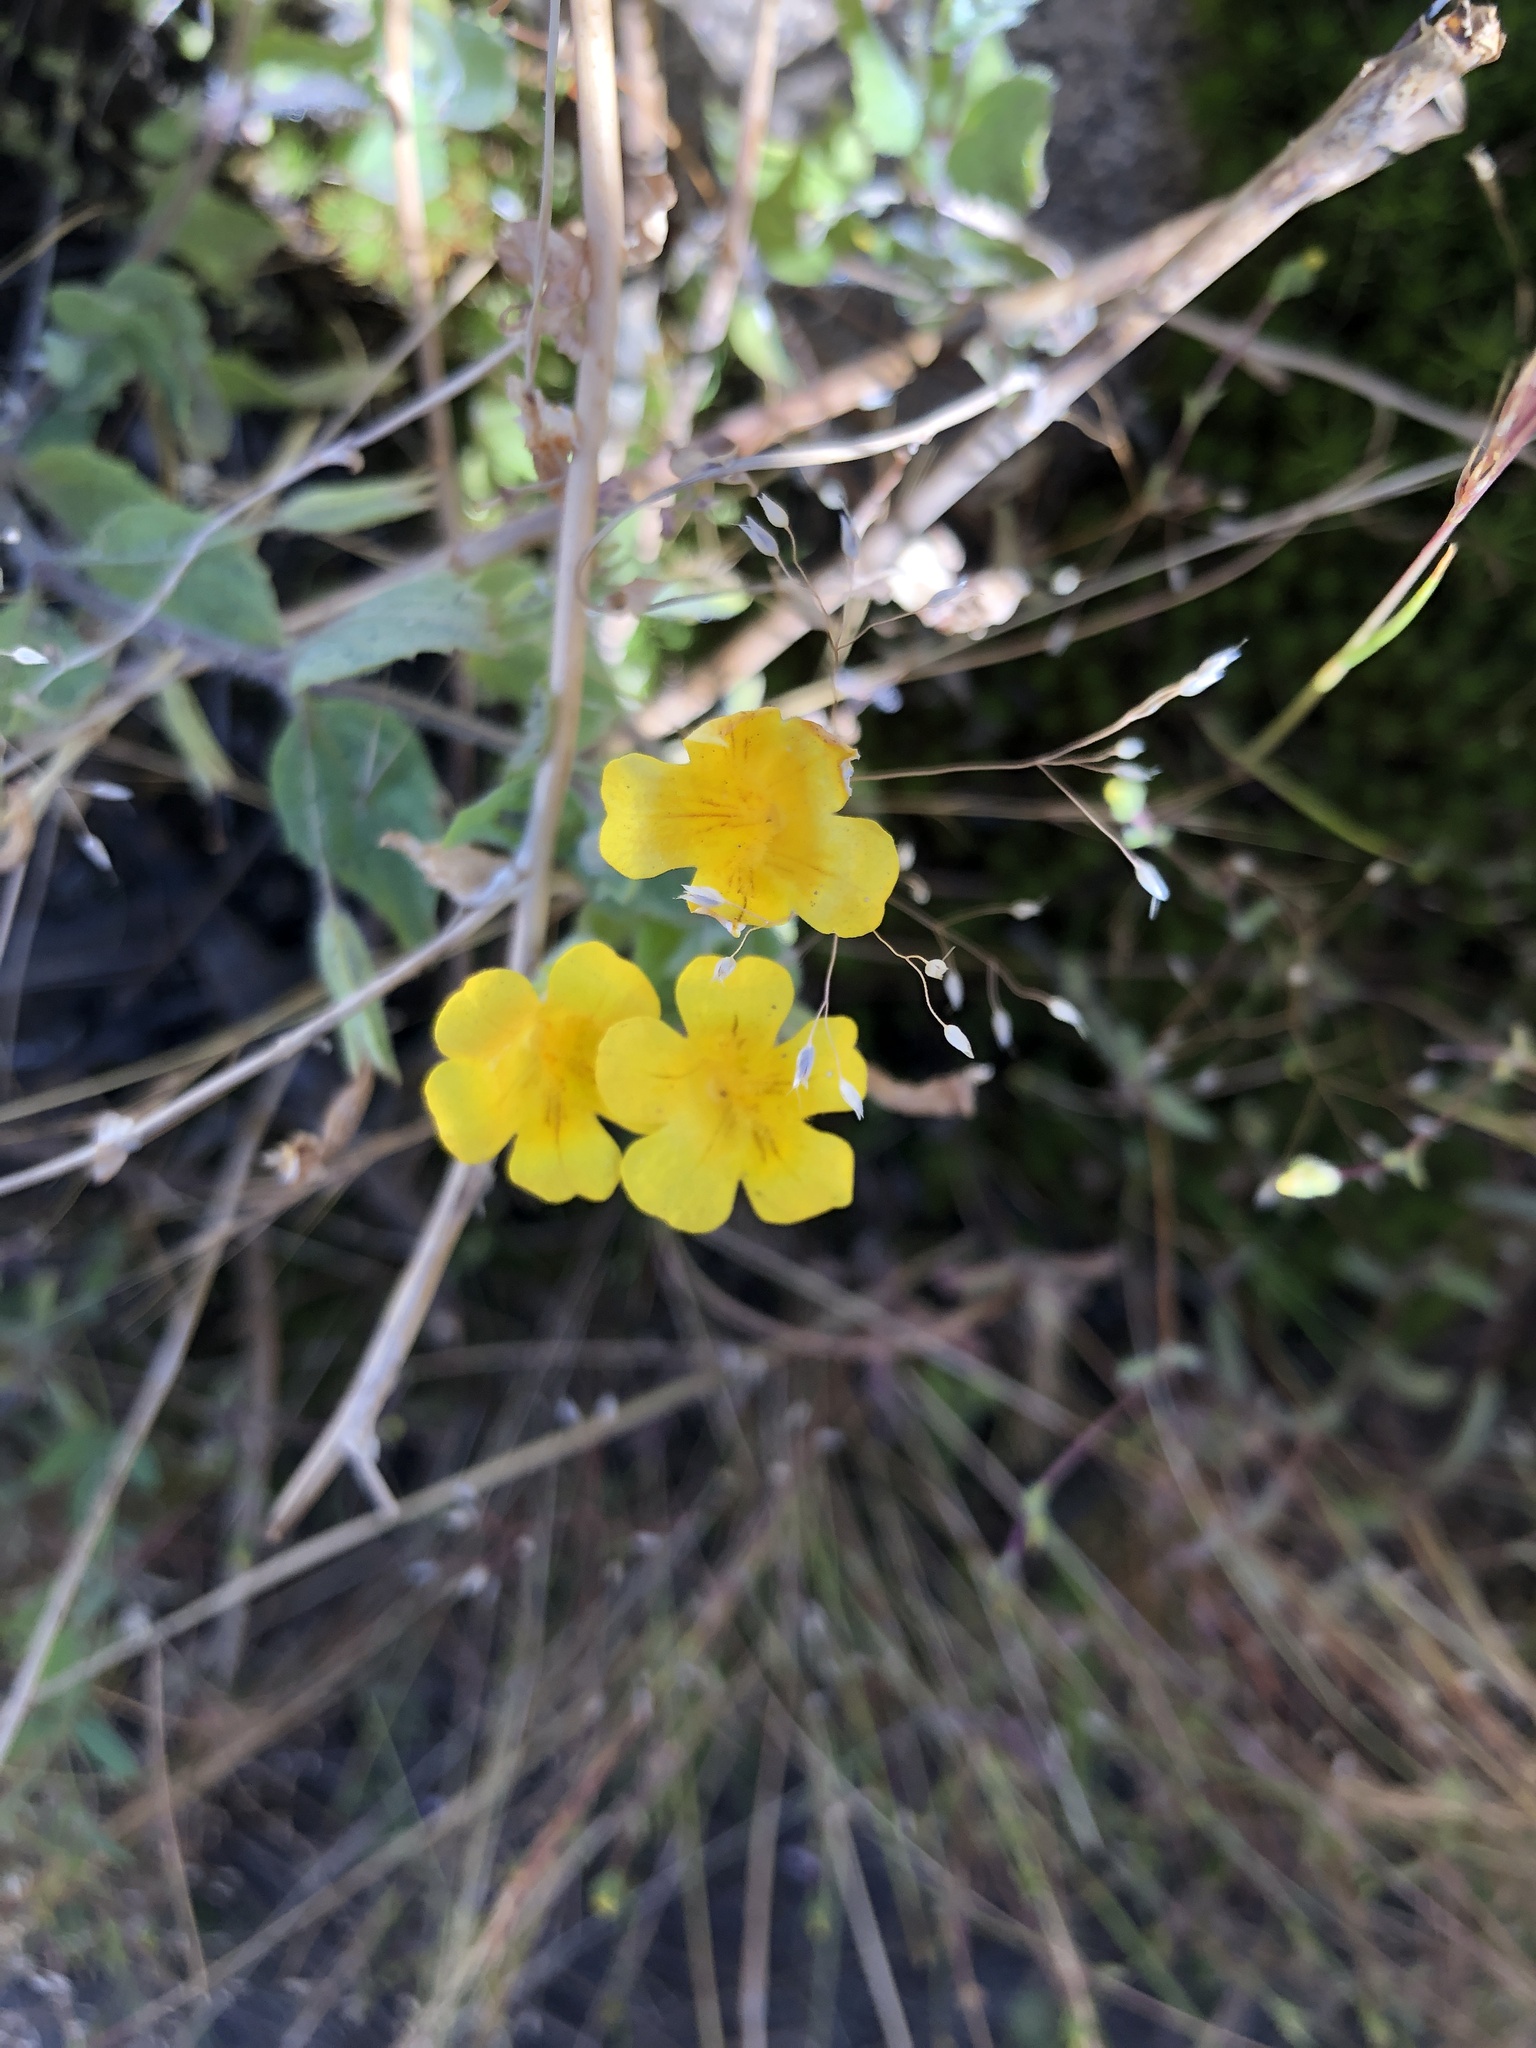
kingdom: Plantae
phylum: Tracheophyta
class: Magnoliopsida
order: Lamiales
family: Phrymaceae
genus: Erythranthe
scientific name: Erythranthe moschata
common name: Muskflower
